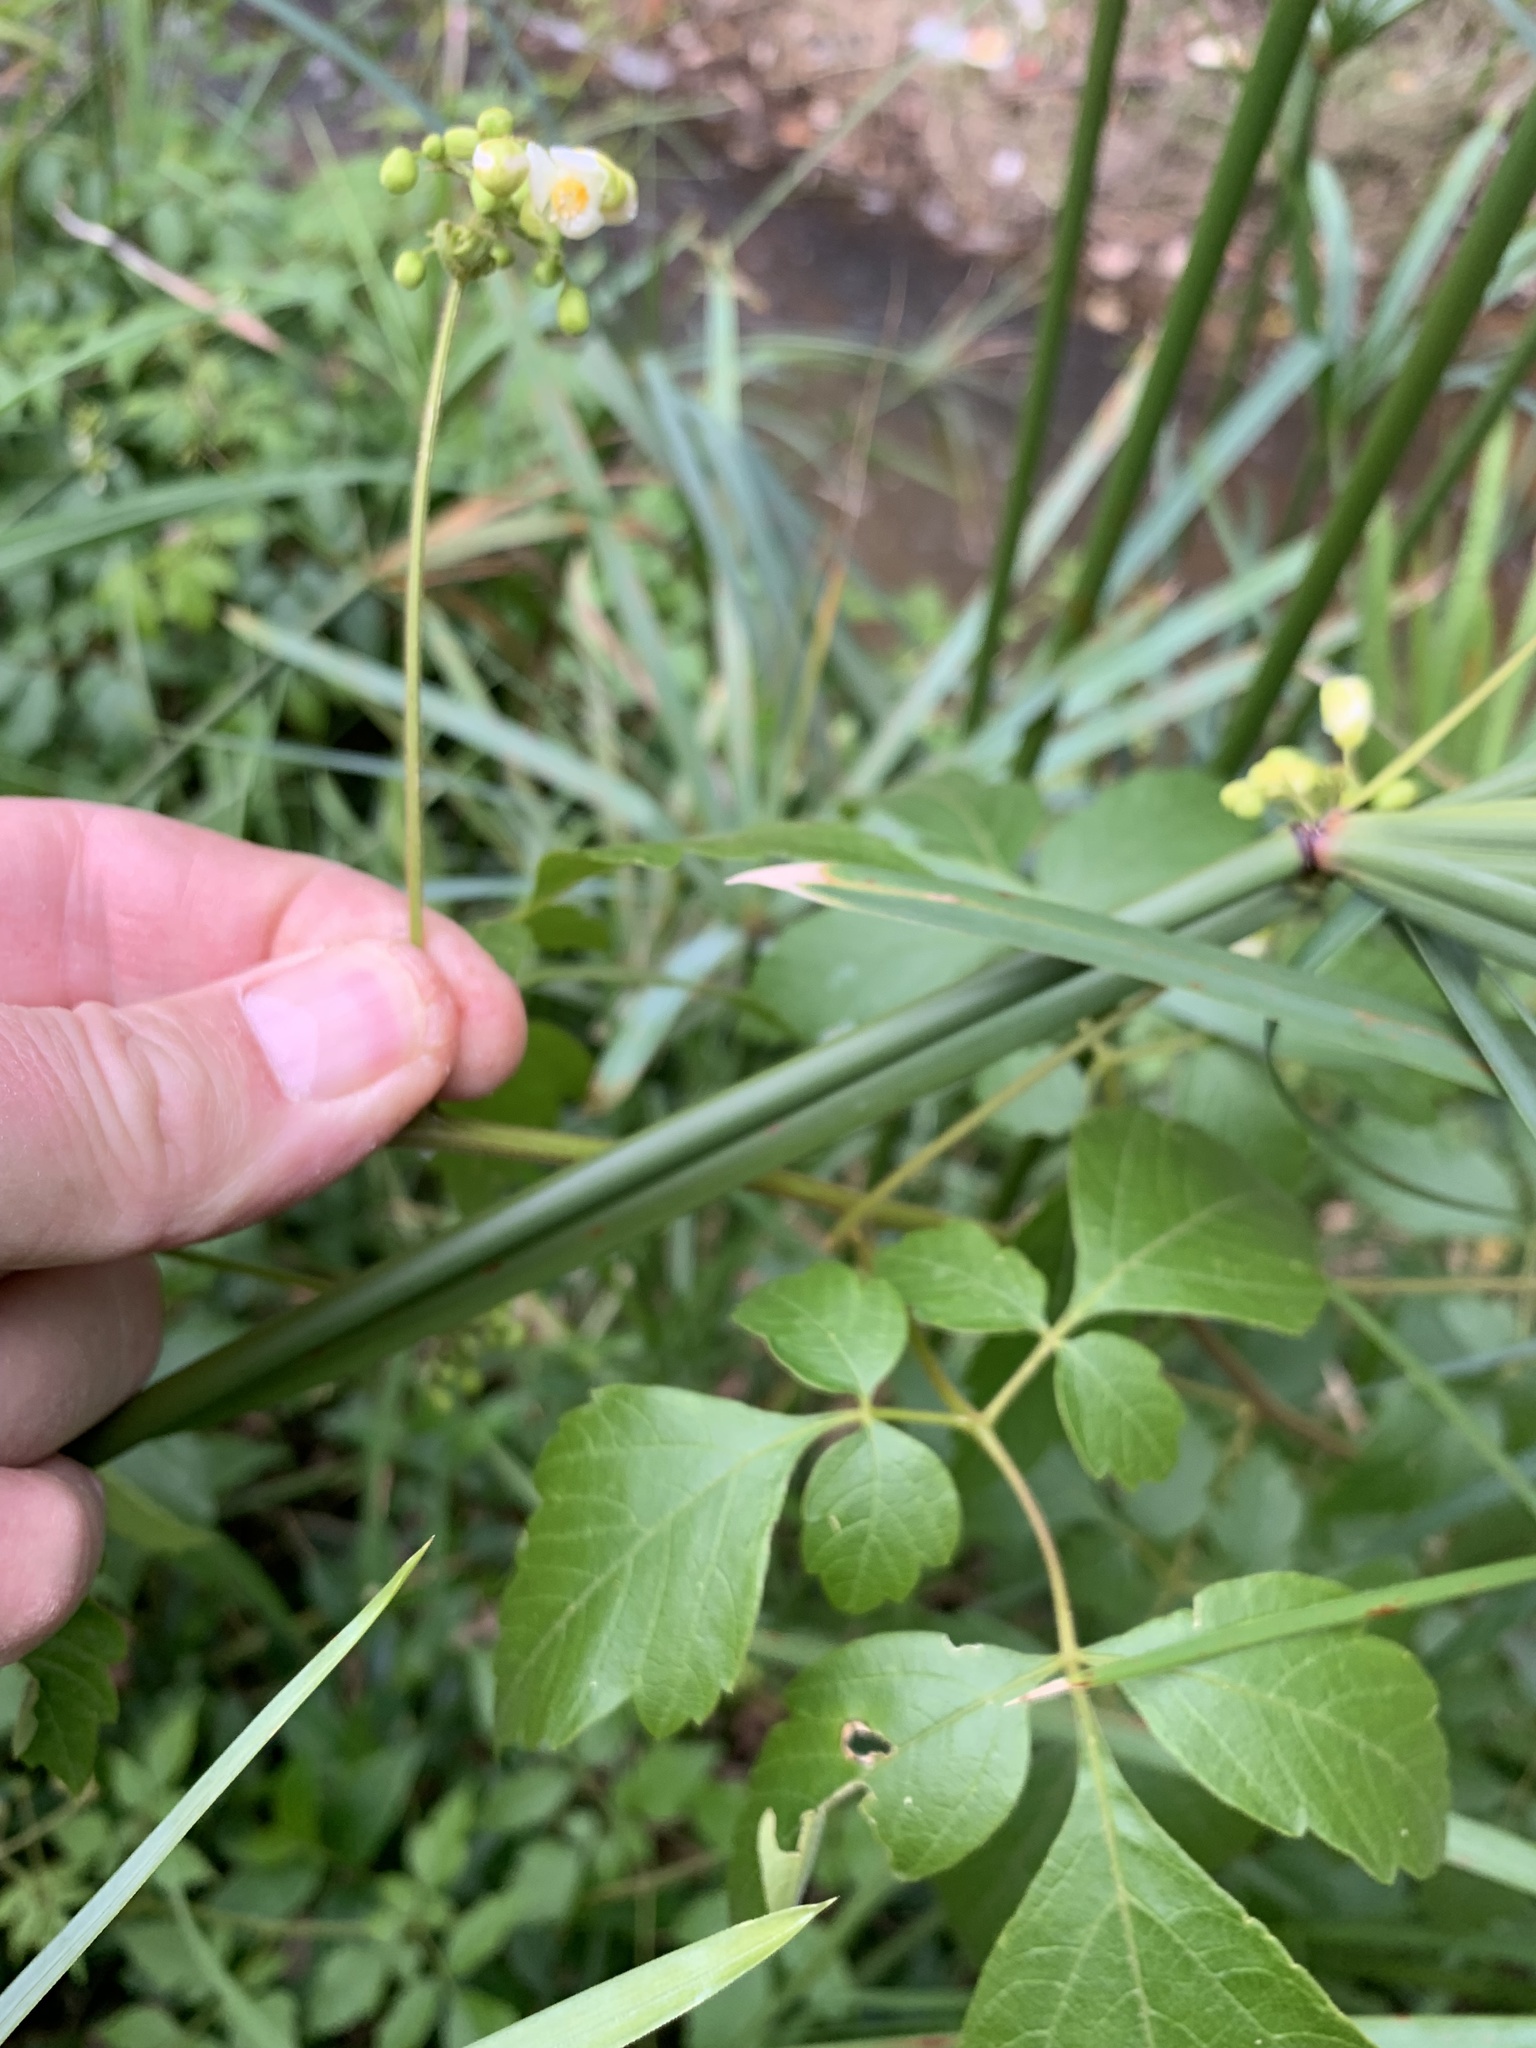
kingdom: Plantae
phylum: Tracheophyta
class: Magnoliopsida
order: Sapindales
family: Sapindaceae
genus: Cardiospermum
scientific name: Cardiospermum grandiflorum
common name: Balloon vine
